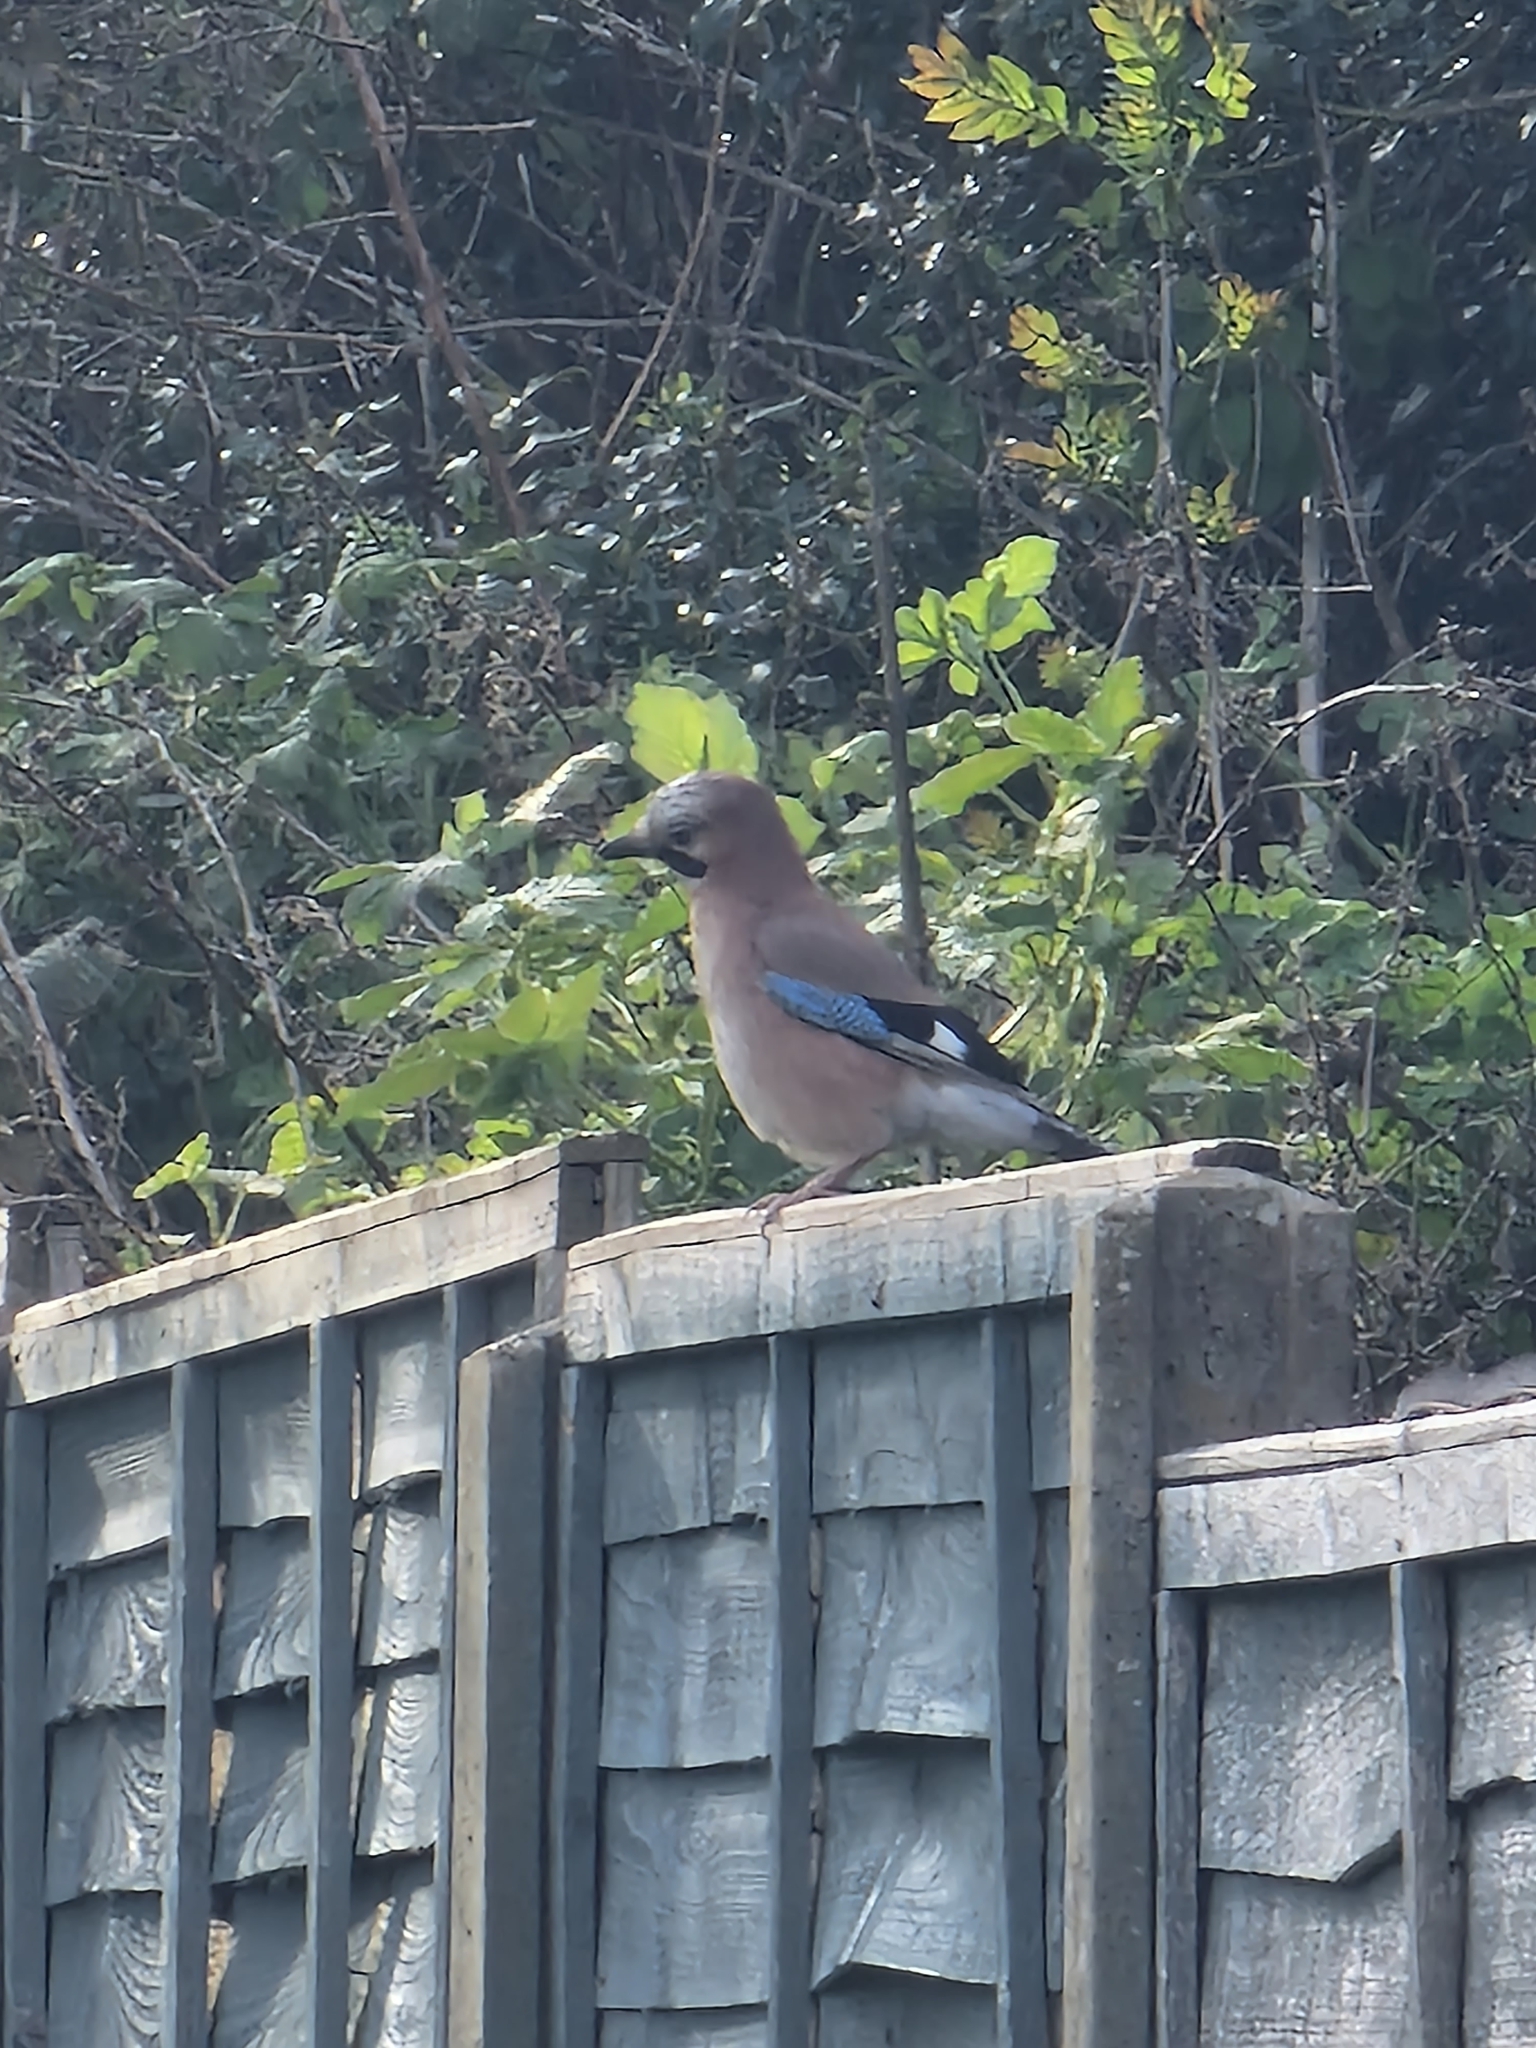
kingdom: Animalia
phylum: Chordata
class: Aves
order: Passeriformes
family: Corvidae
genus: Garrulus
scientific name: Garrulus glandarius
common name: Eurasian jay
